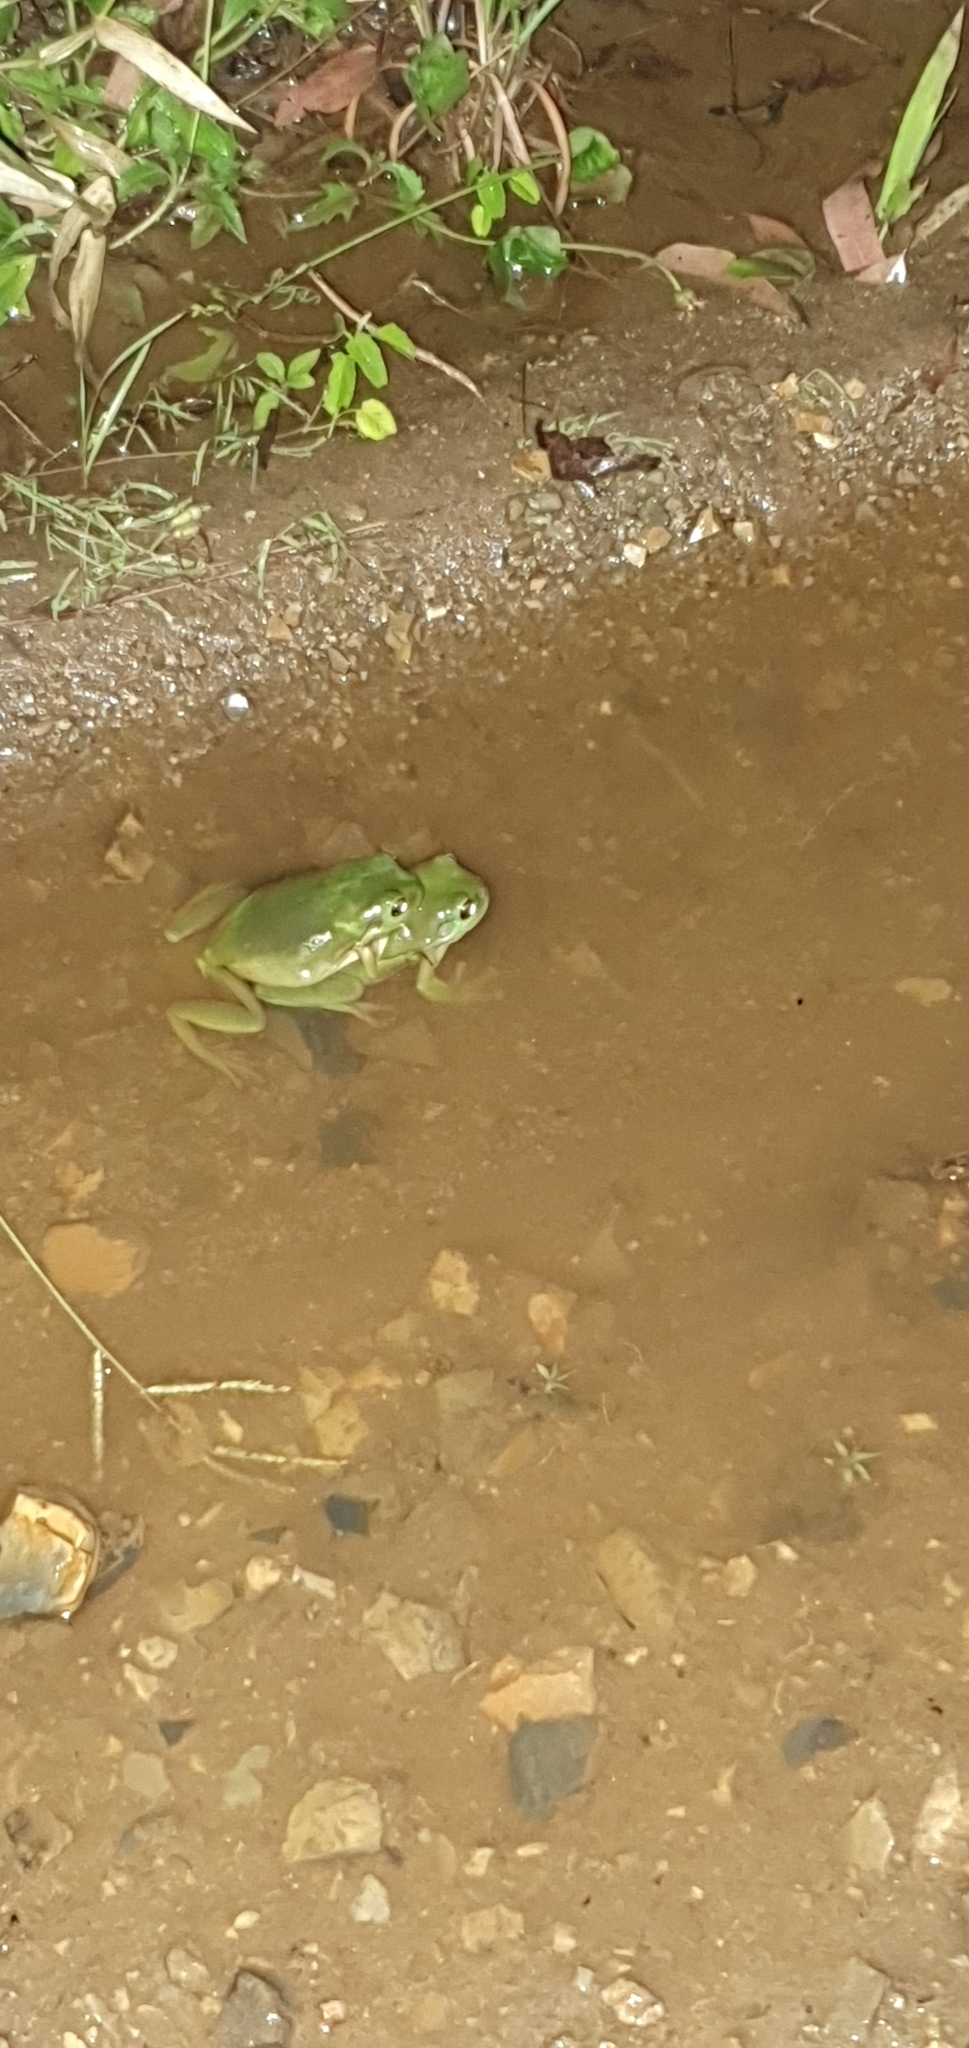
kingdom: Animalia
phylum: Chordata
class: Amphibia
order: Anura
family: Pelodryadidae
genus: Ranoidea
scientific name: Ranoidea caerulea
